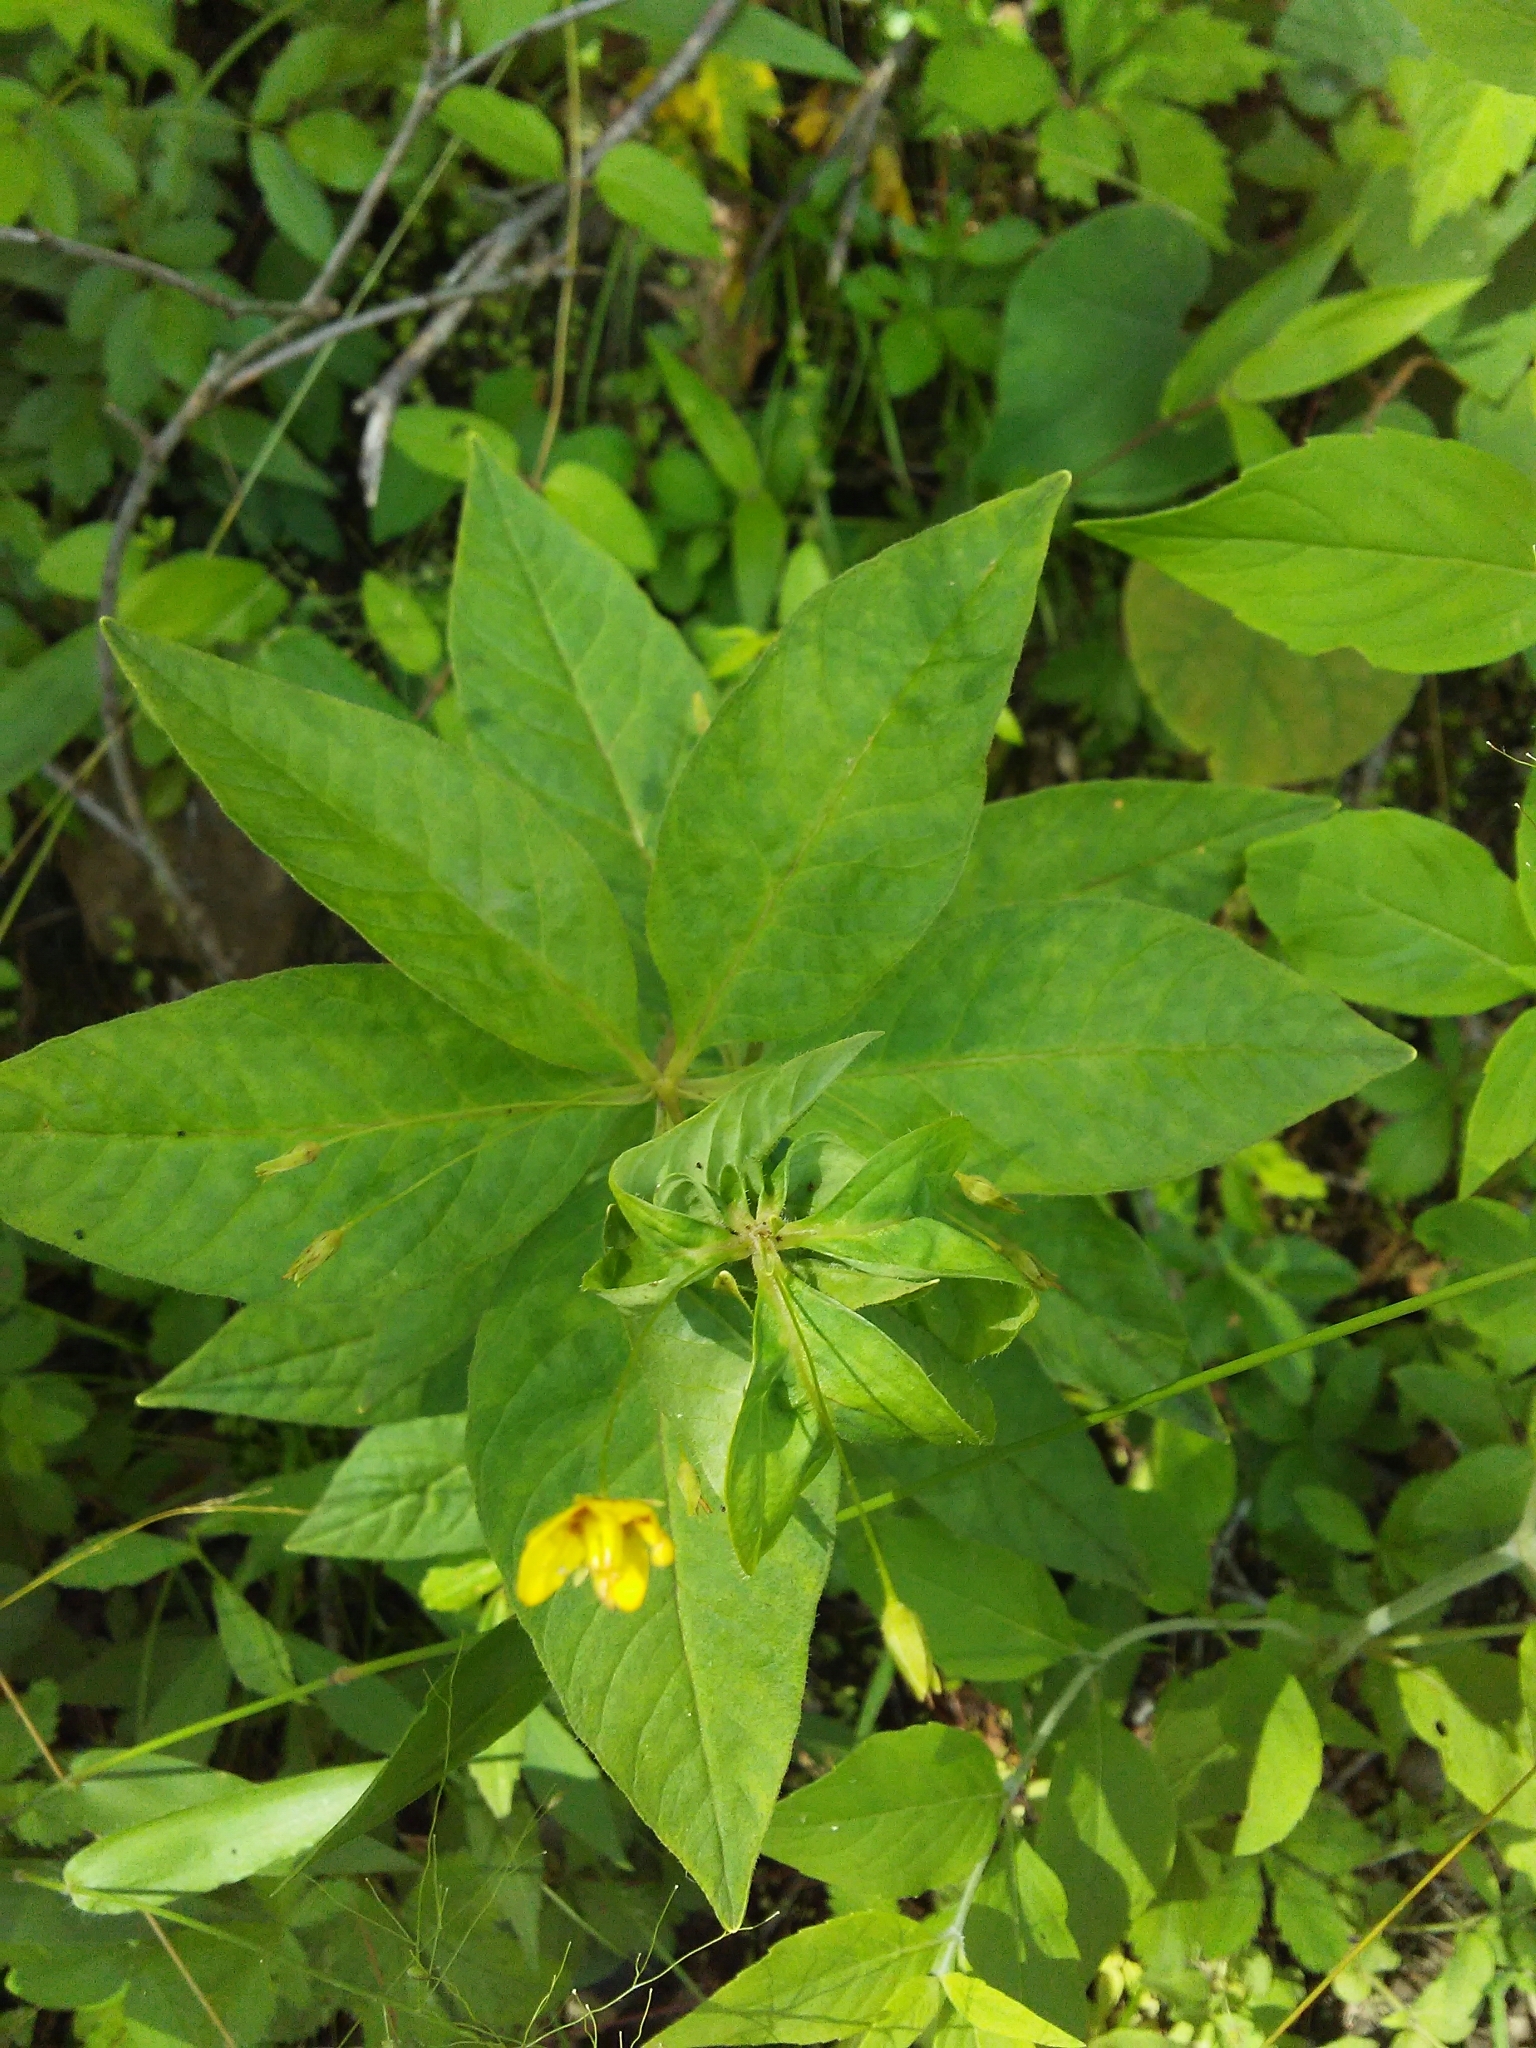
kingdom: Plantae
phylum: Tracheophyta
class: Magnoliopsida
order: Ericales
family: Primulaceae
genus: Lysimachia
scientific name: Lysimachia quadrifolia
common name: Whorled loosestrife
